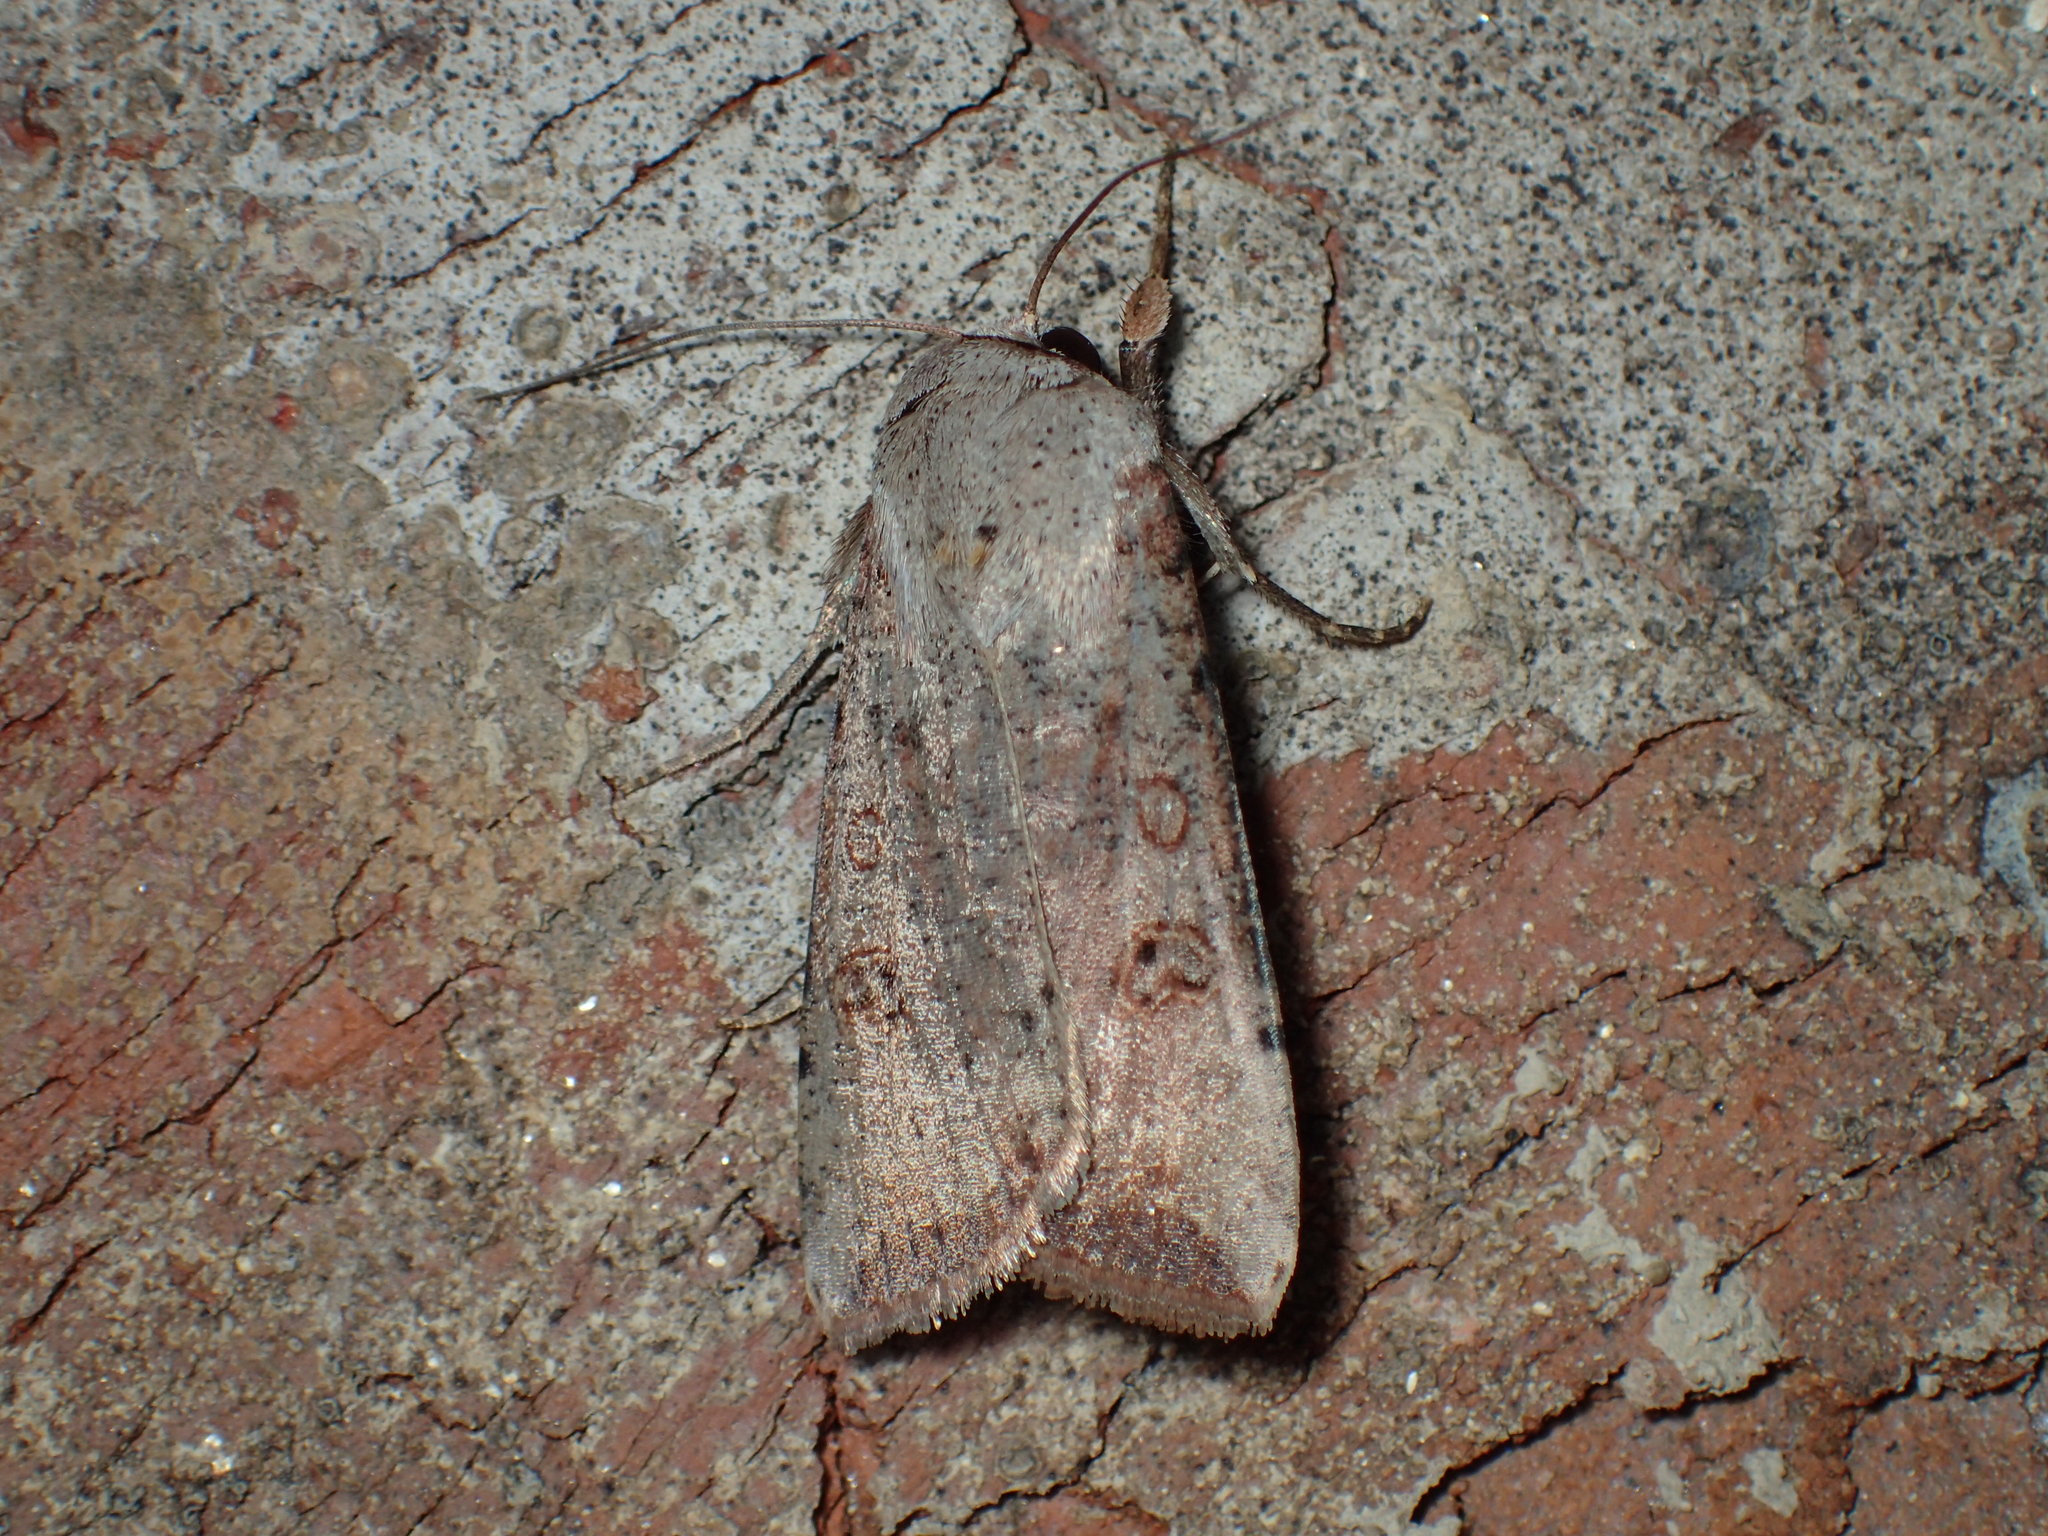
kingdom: Animalia
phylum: Arthropoda
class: Insecta
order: Lepidoptera
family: Noctuidae
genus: Anicla
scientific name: Anicla infecta
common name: Green cutworm
